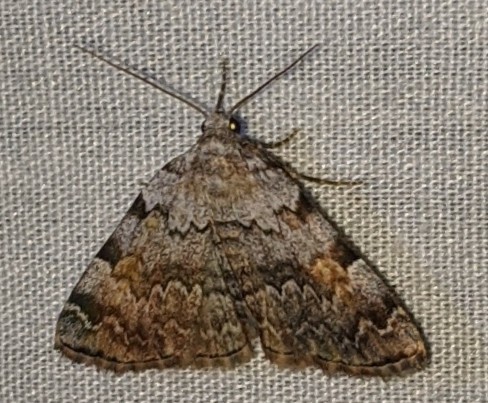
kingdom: Animalia
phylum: Arthropoda
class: Insecta
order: Lepidoptera
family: Erebidae
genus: Idia
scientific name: Idia americalis
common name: American idia moth
